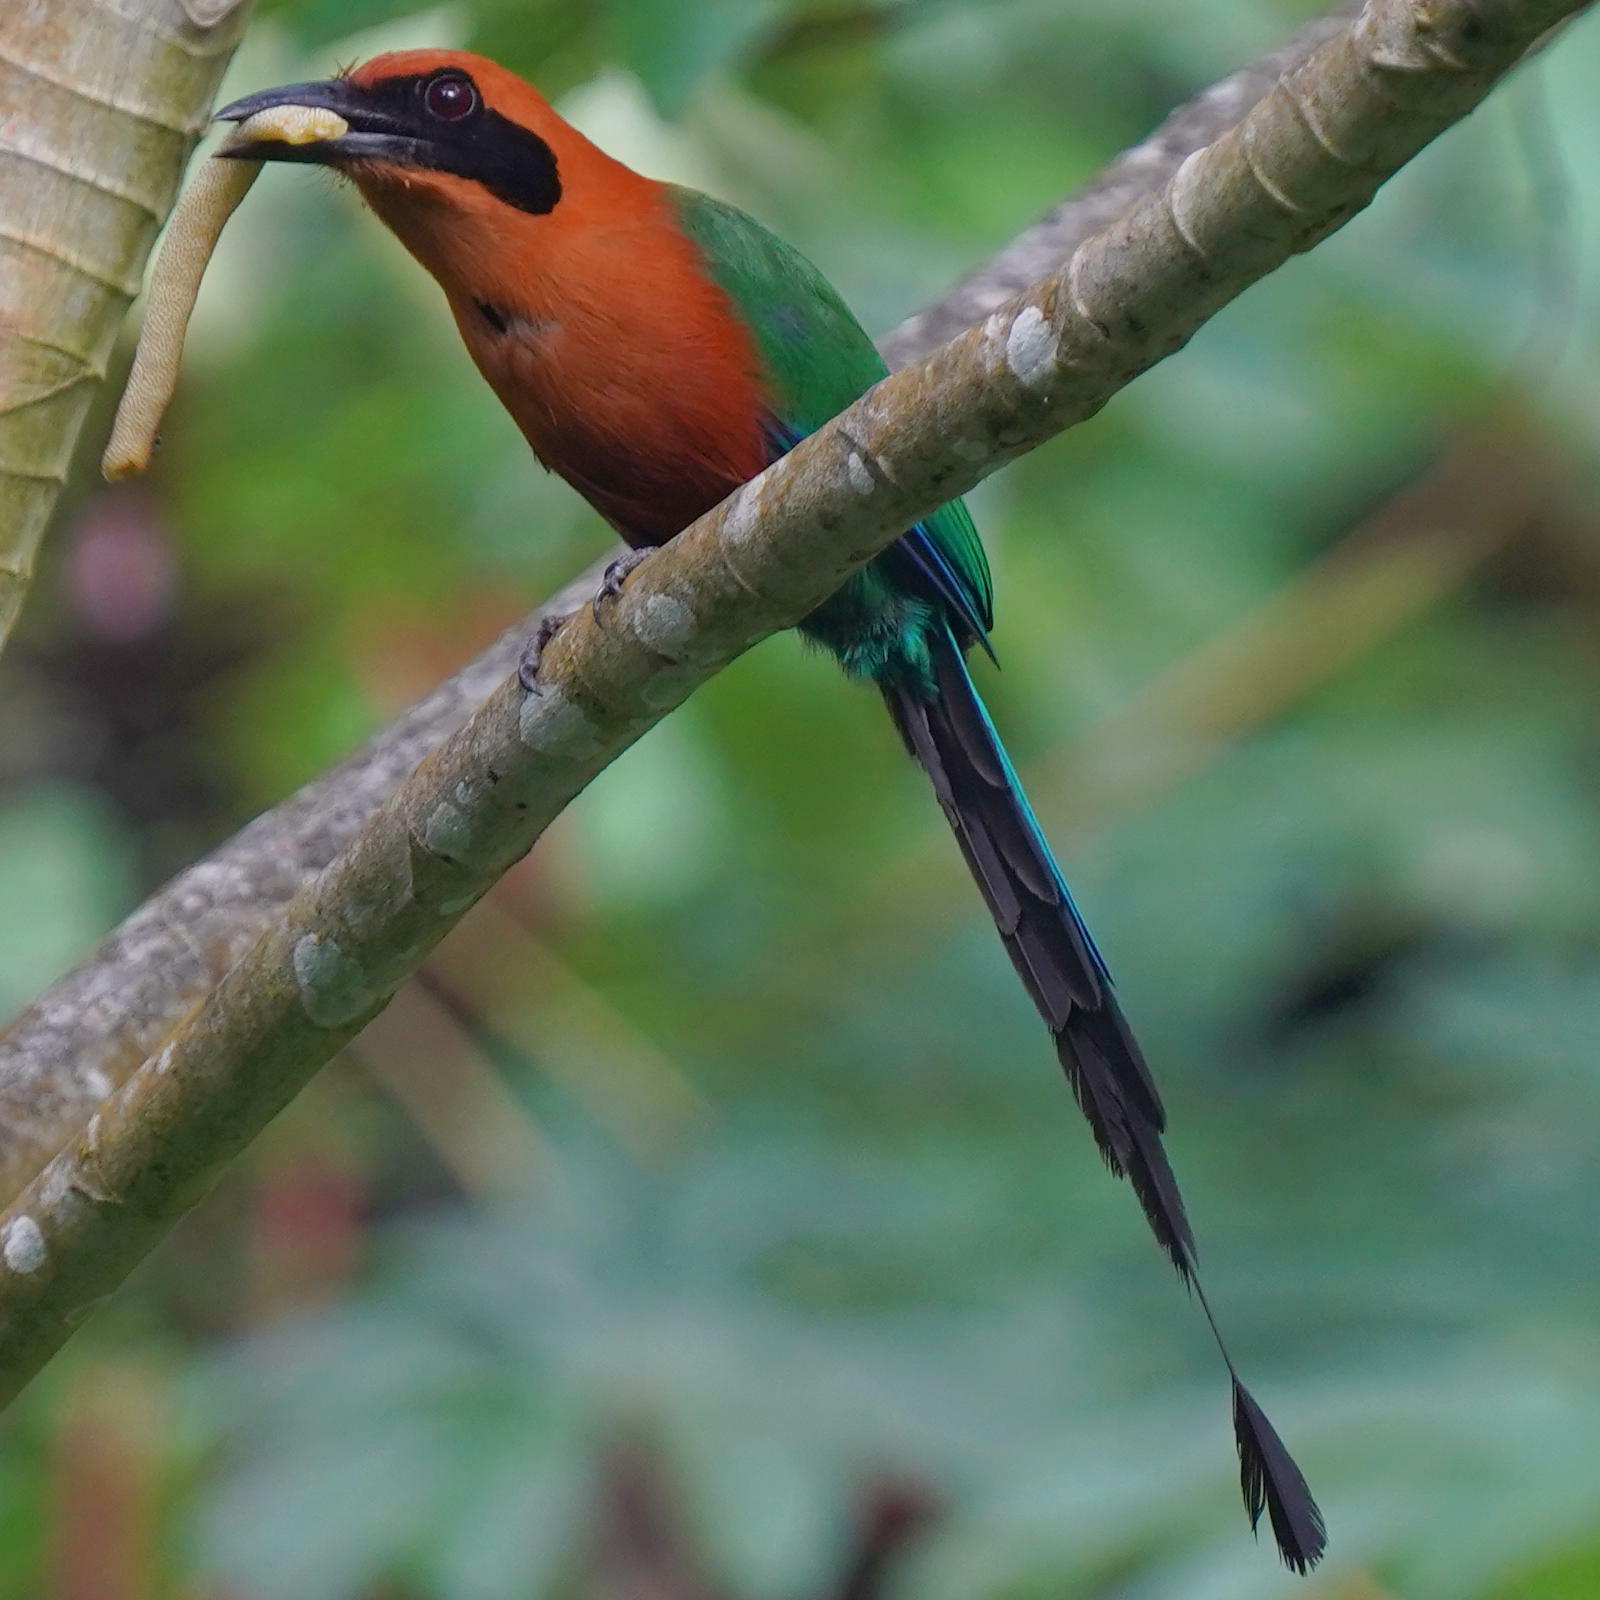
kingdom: Animalia
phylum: Chordata
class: Aves
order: Coraciiformes
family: Momotidae
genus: Baryphthengus
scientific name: Baryphthengus martii
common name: Rufous motmot
